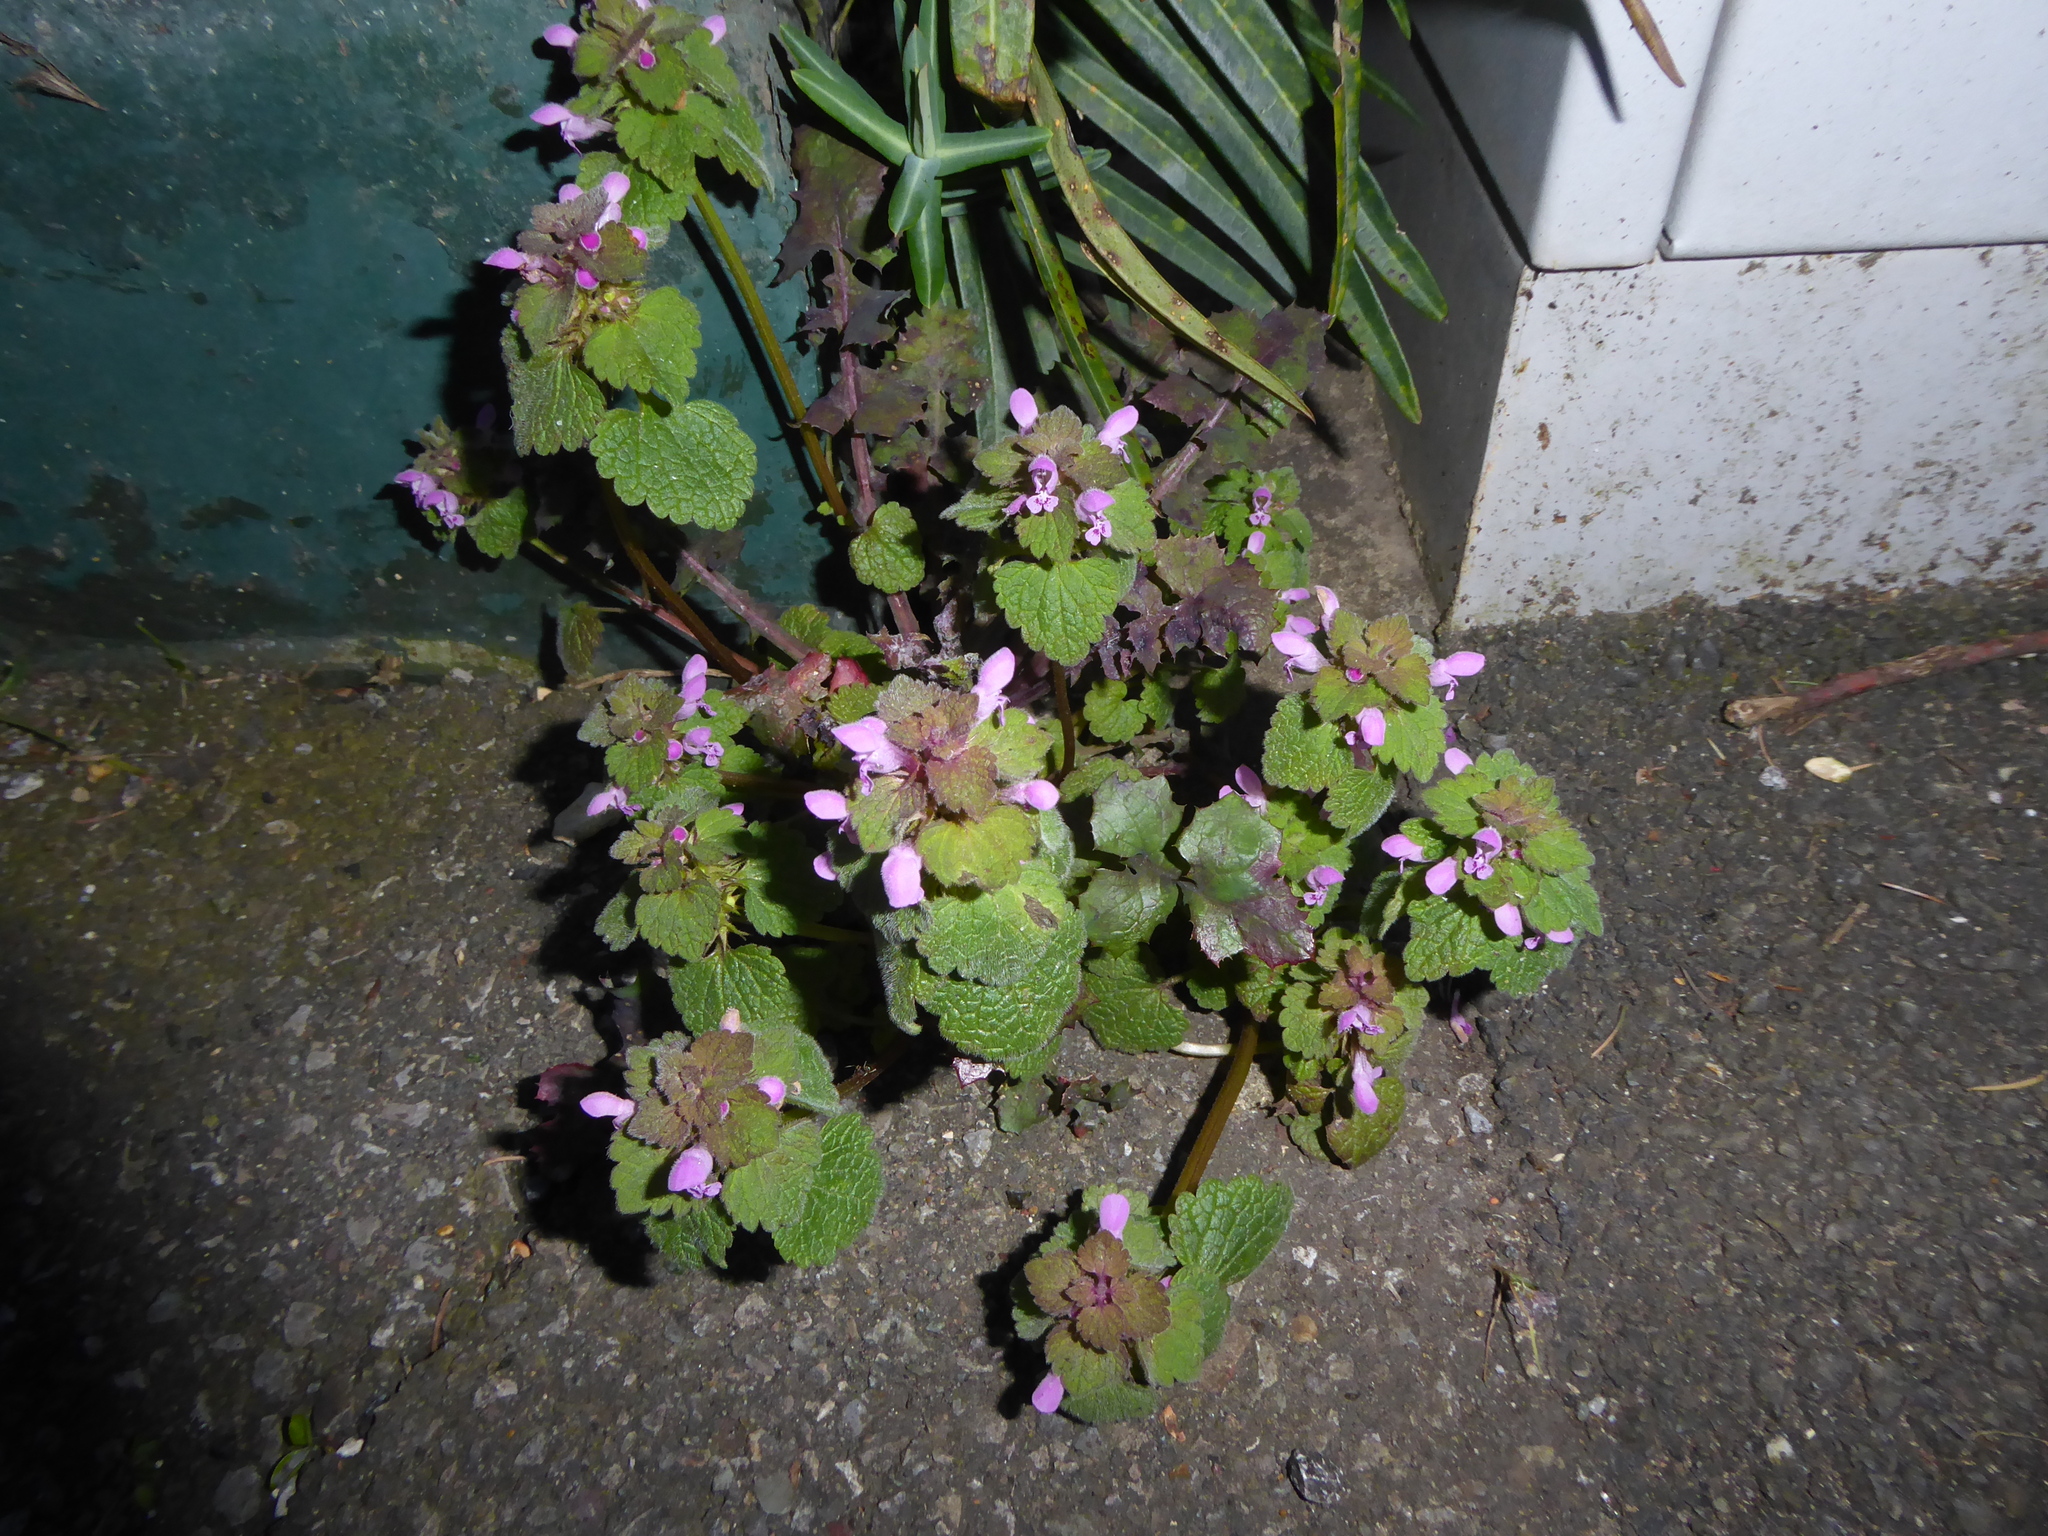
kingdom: Plantae
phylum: Tracheophyta
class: Magnoliopsida
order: Lamiales
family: Lamiaceae
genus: Lamium
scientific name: Lamium purpureum
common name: Red dead-nettle
